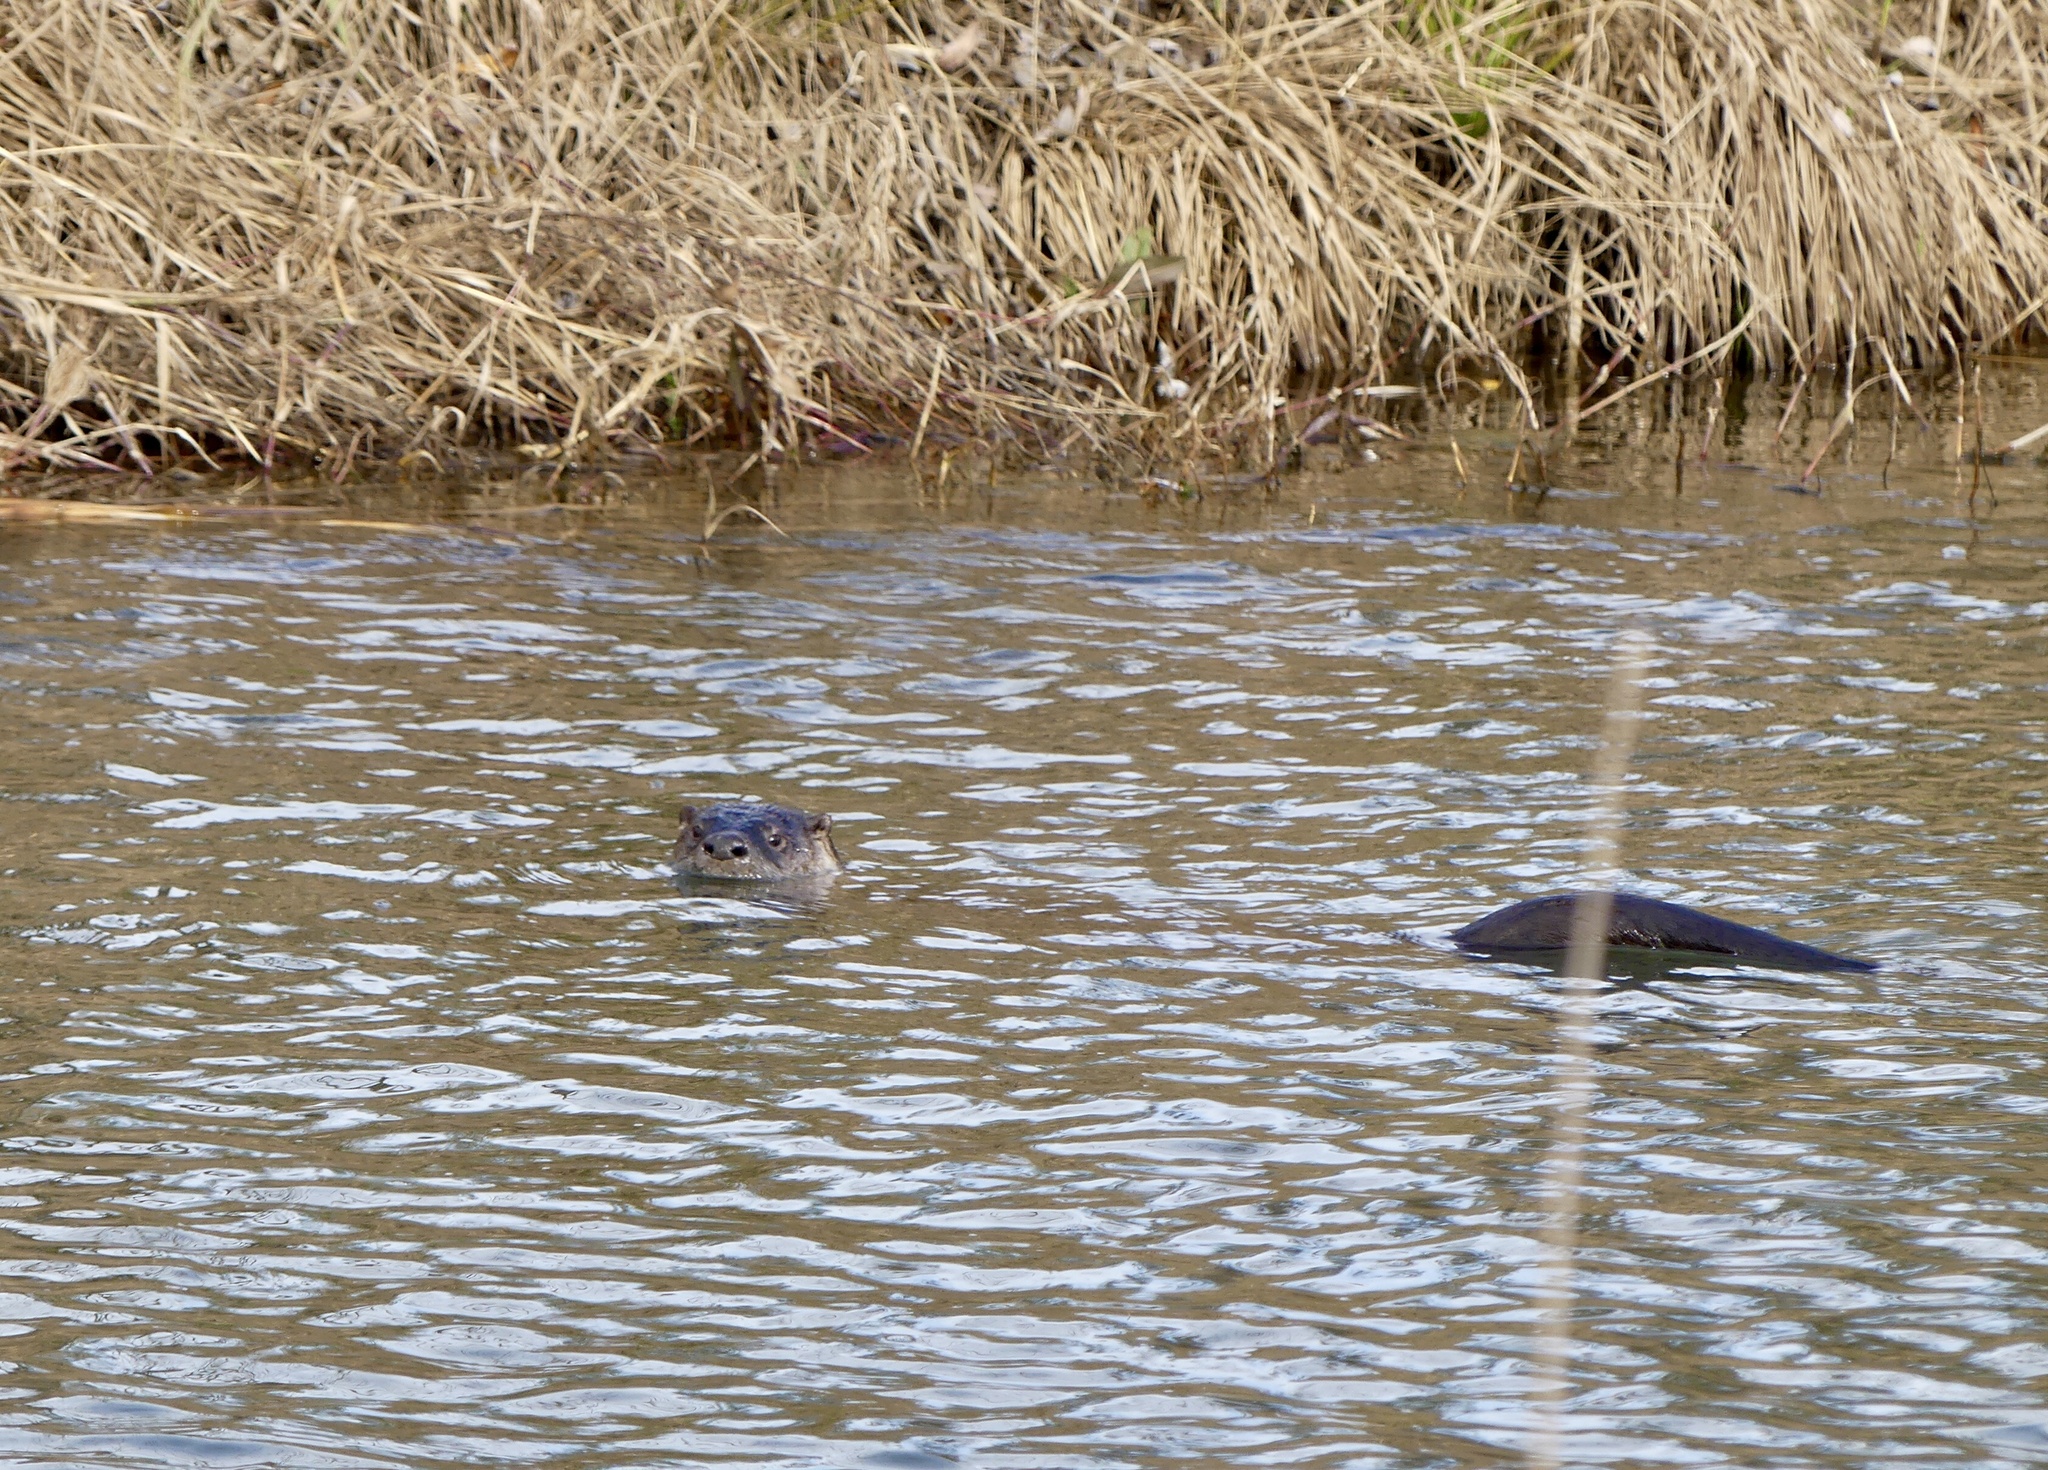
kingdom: Animalia
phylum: Chordata
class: Mammalia
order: Carnivora
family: Mustelidae
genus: Lontra
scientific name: Lontra canadensis
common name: North american river otter
